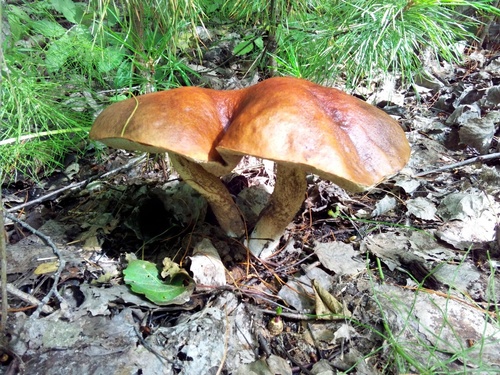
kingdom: Fungi
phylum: Basidiomycota
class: Agaricomycetes
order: Boletales
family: Boletaceae
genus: Leccinum
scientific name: Leccinum scabrum
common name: Blushing bolete
